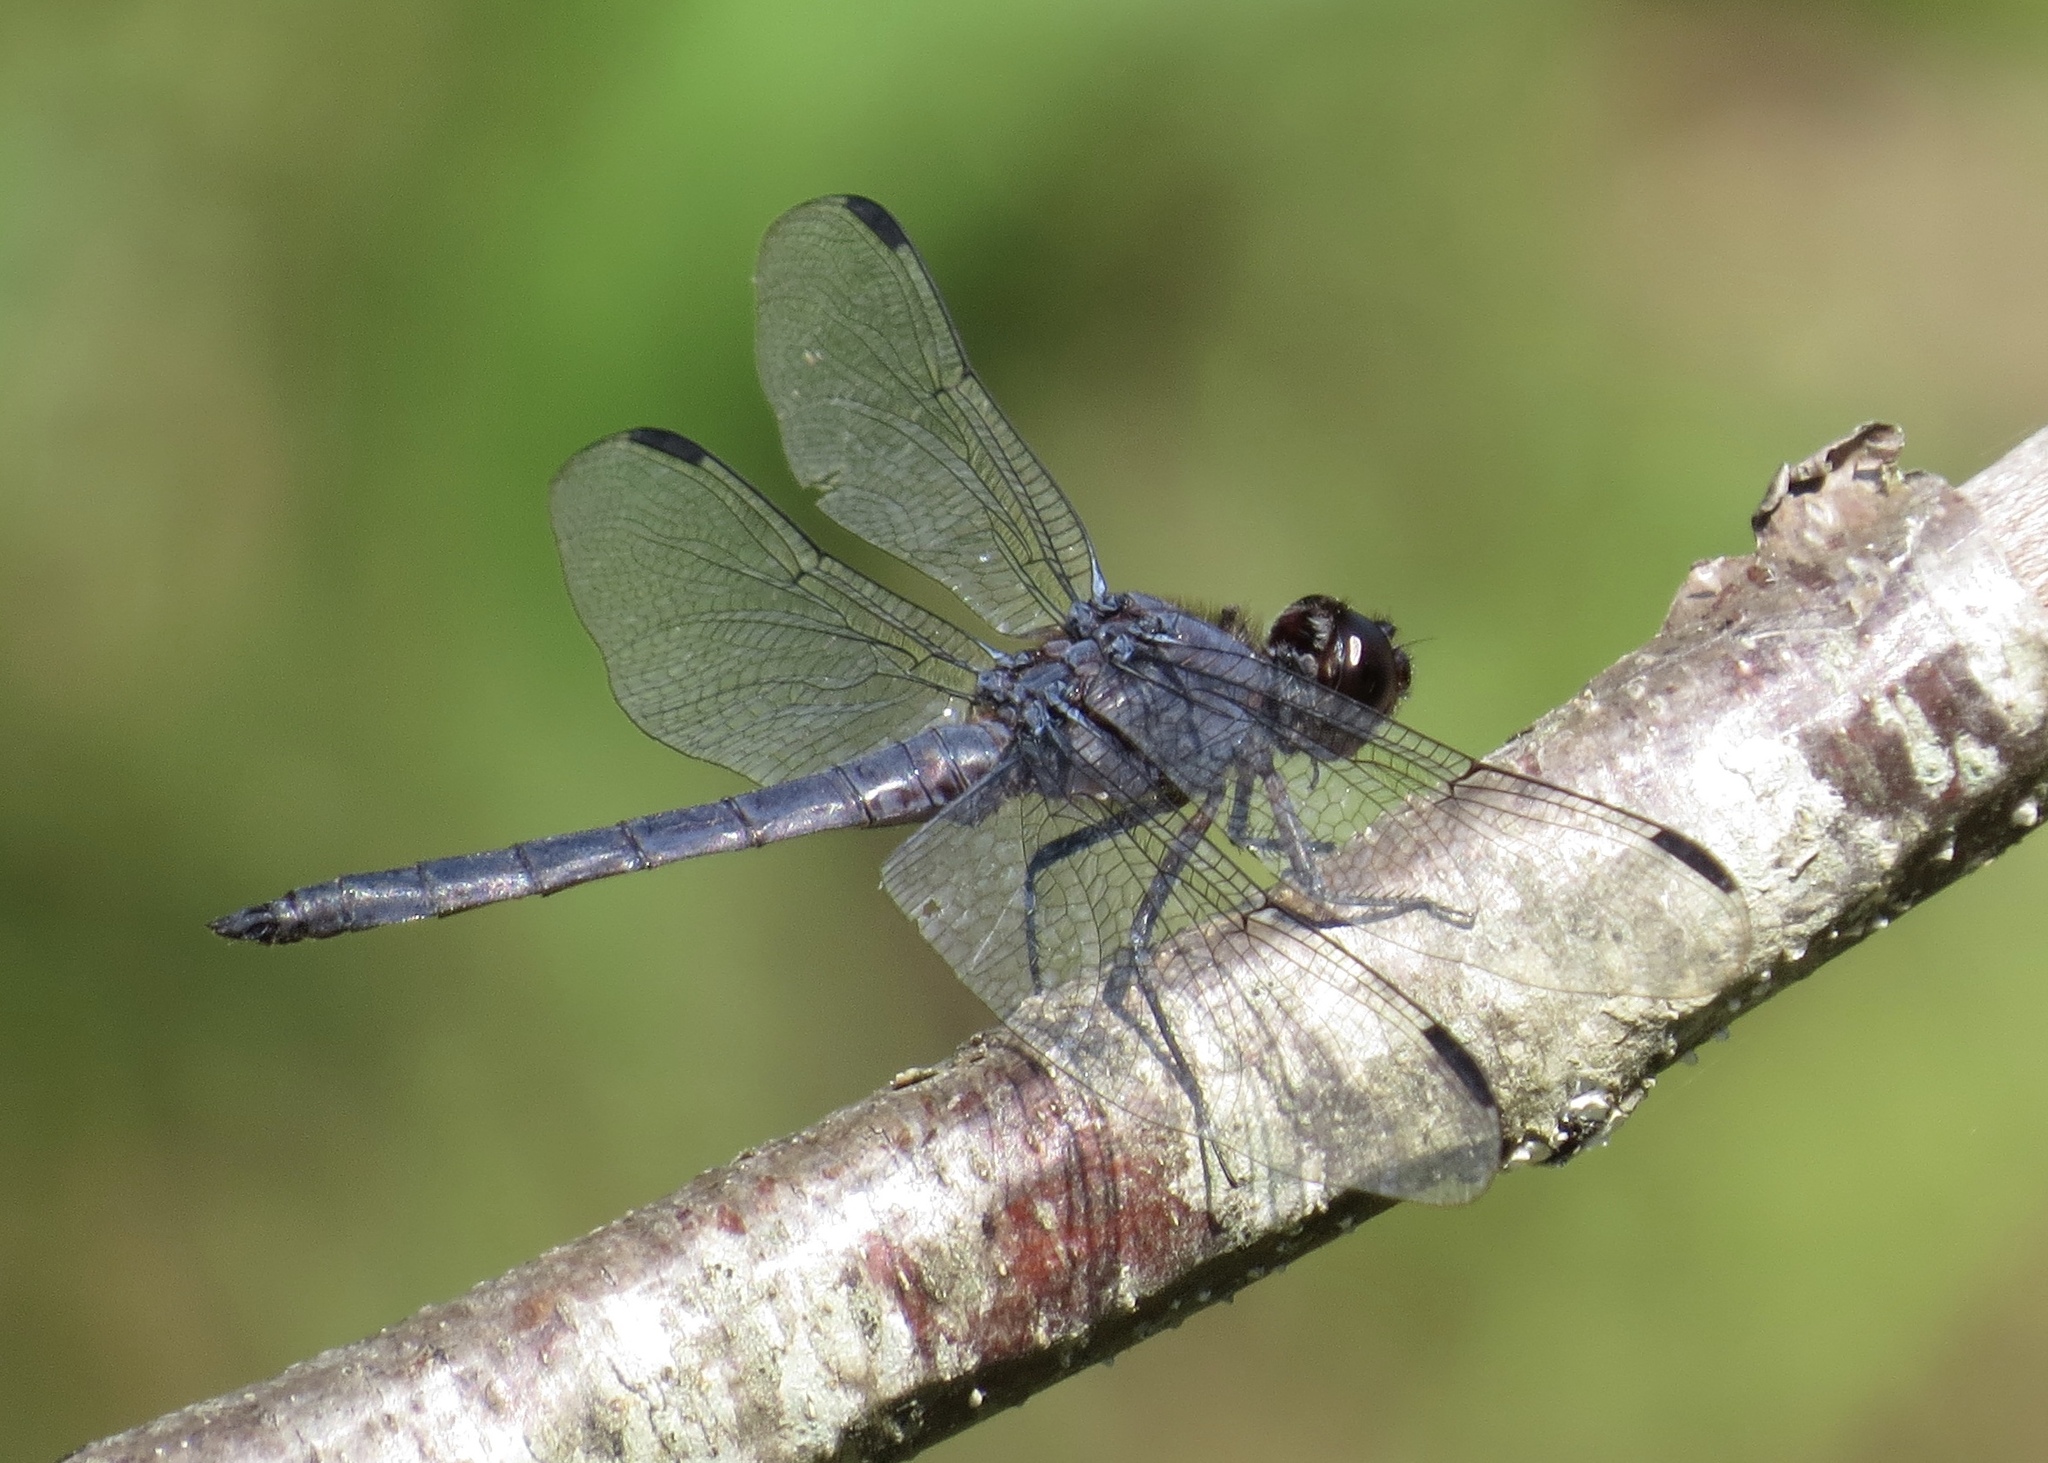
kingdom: Animalia
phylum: Arthropoda
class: Insecta
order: Odonata
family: Libellulidae
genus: Libellula
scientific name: Libellula incesta
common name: Slaty skimmer
